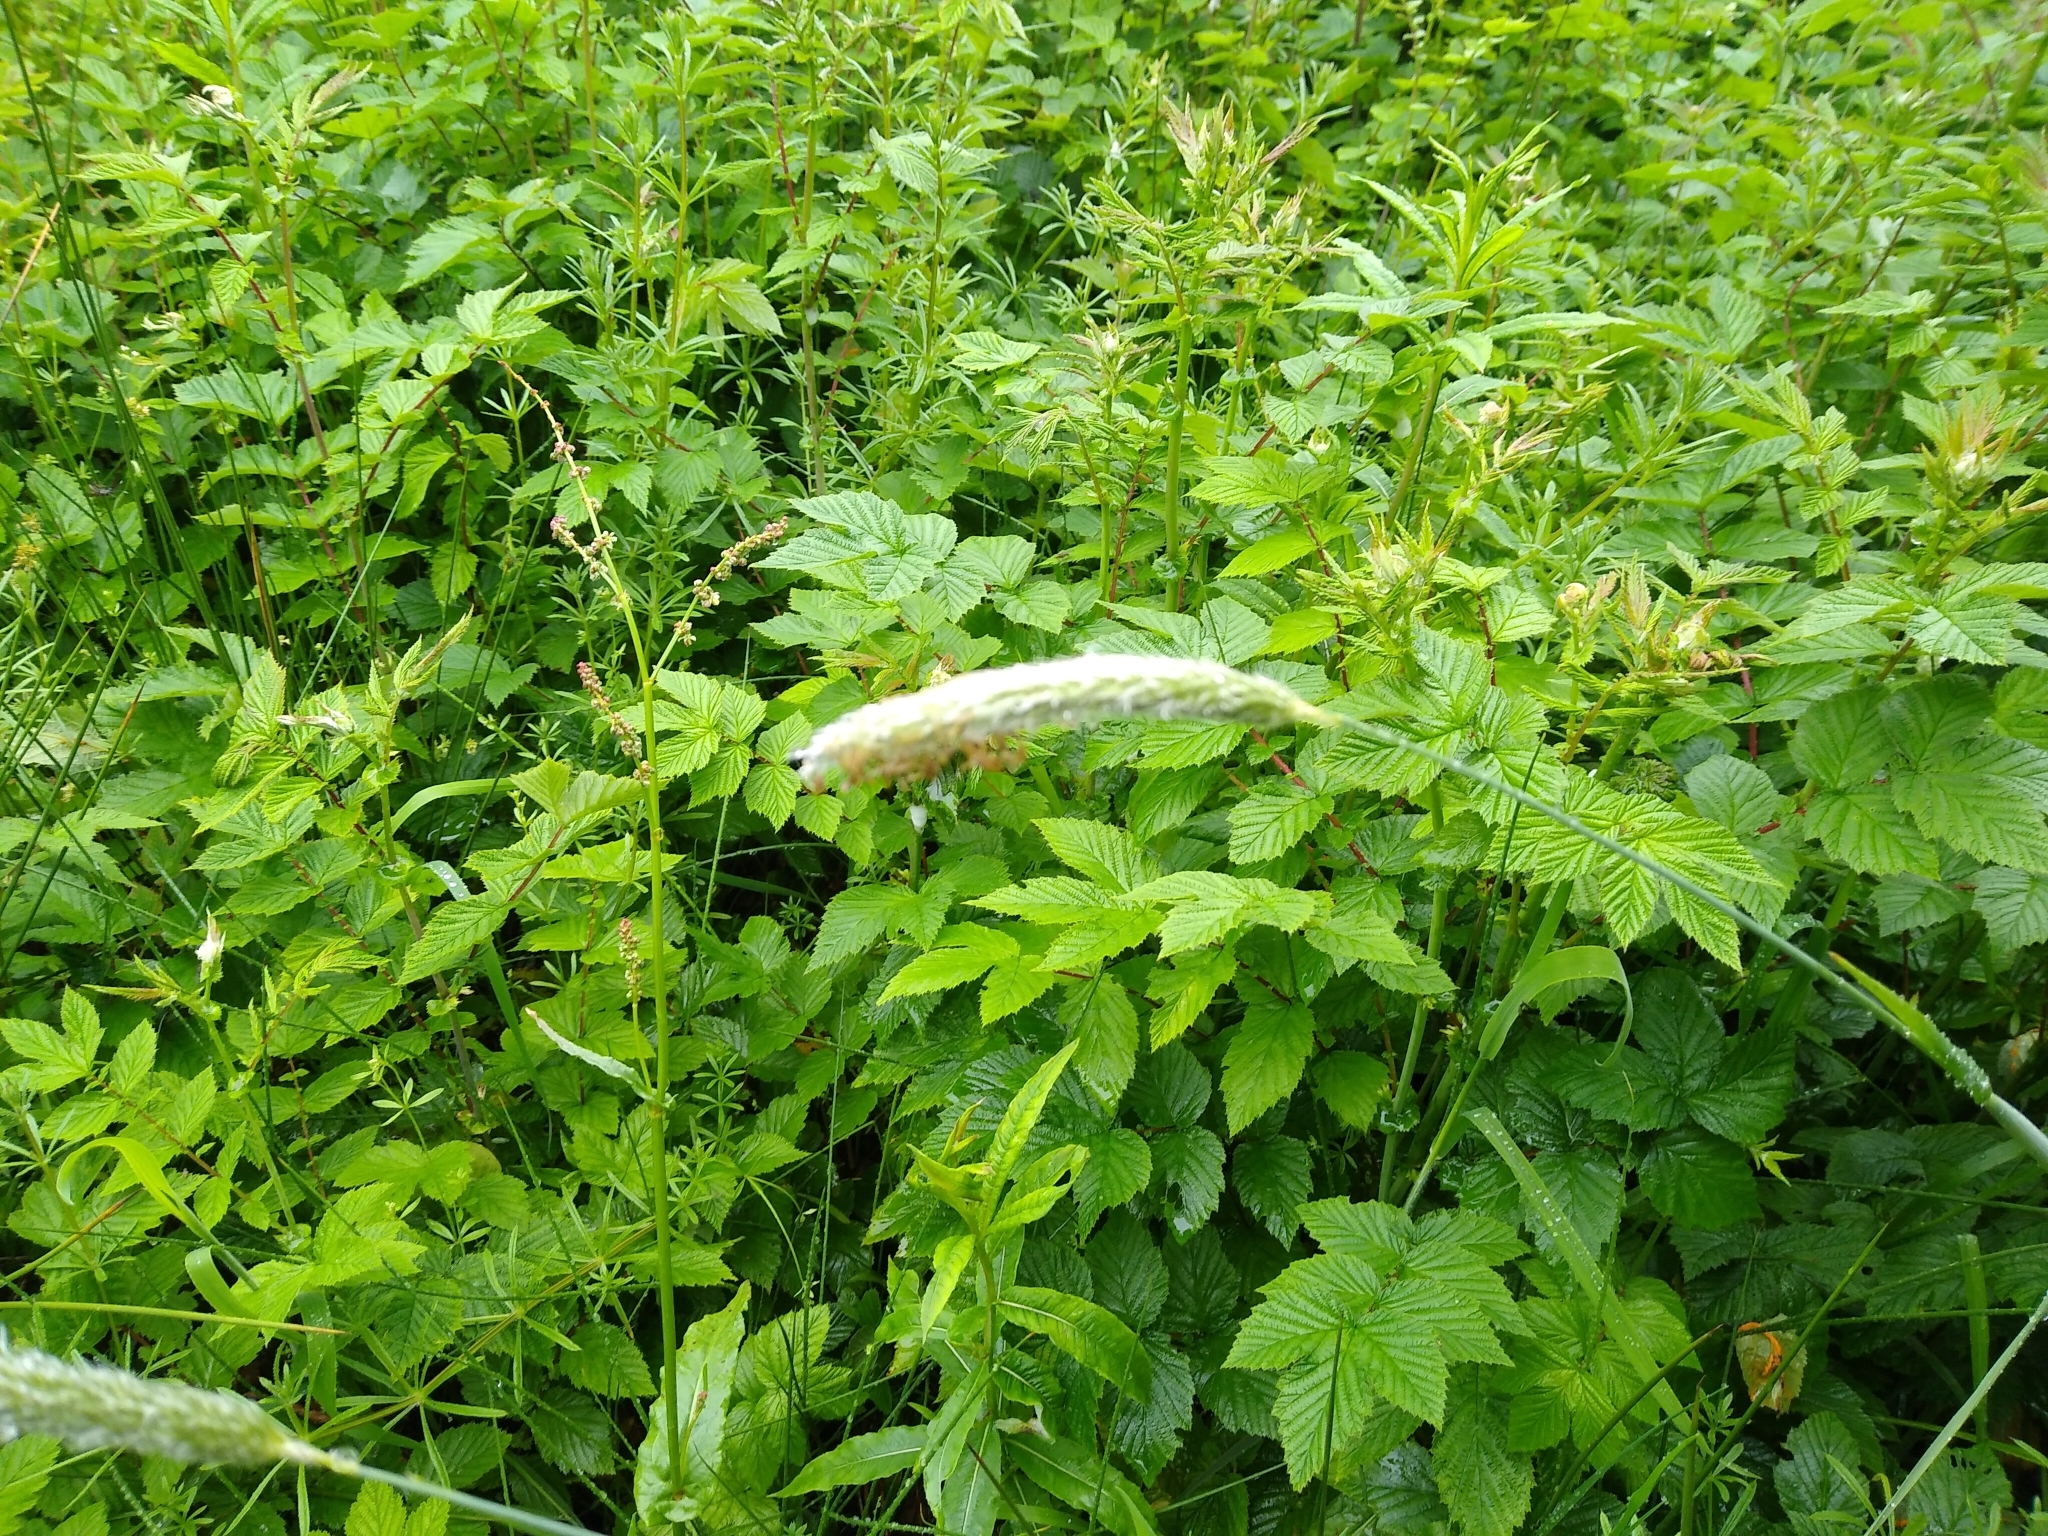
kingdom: Plantae
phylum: Tracheophyta
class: Liliopsida
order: Poales
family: Poaceae
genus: Alopecurus
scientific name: Alopecurus pratensis
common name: Meadow foxtail
